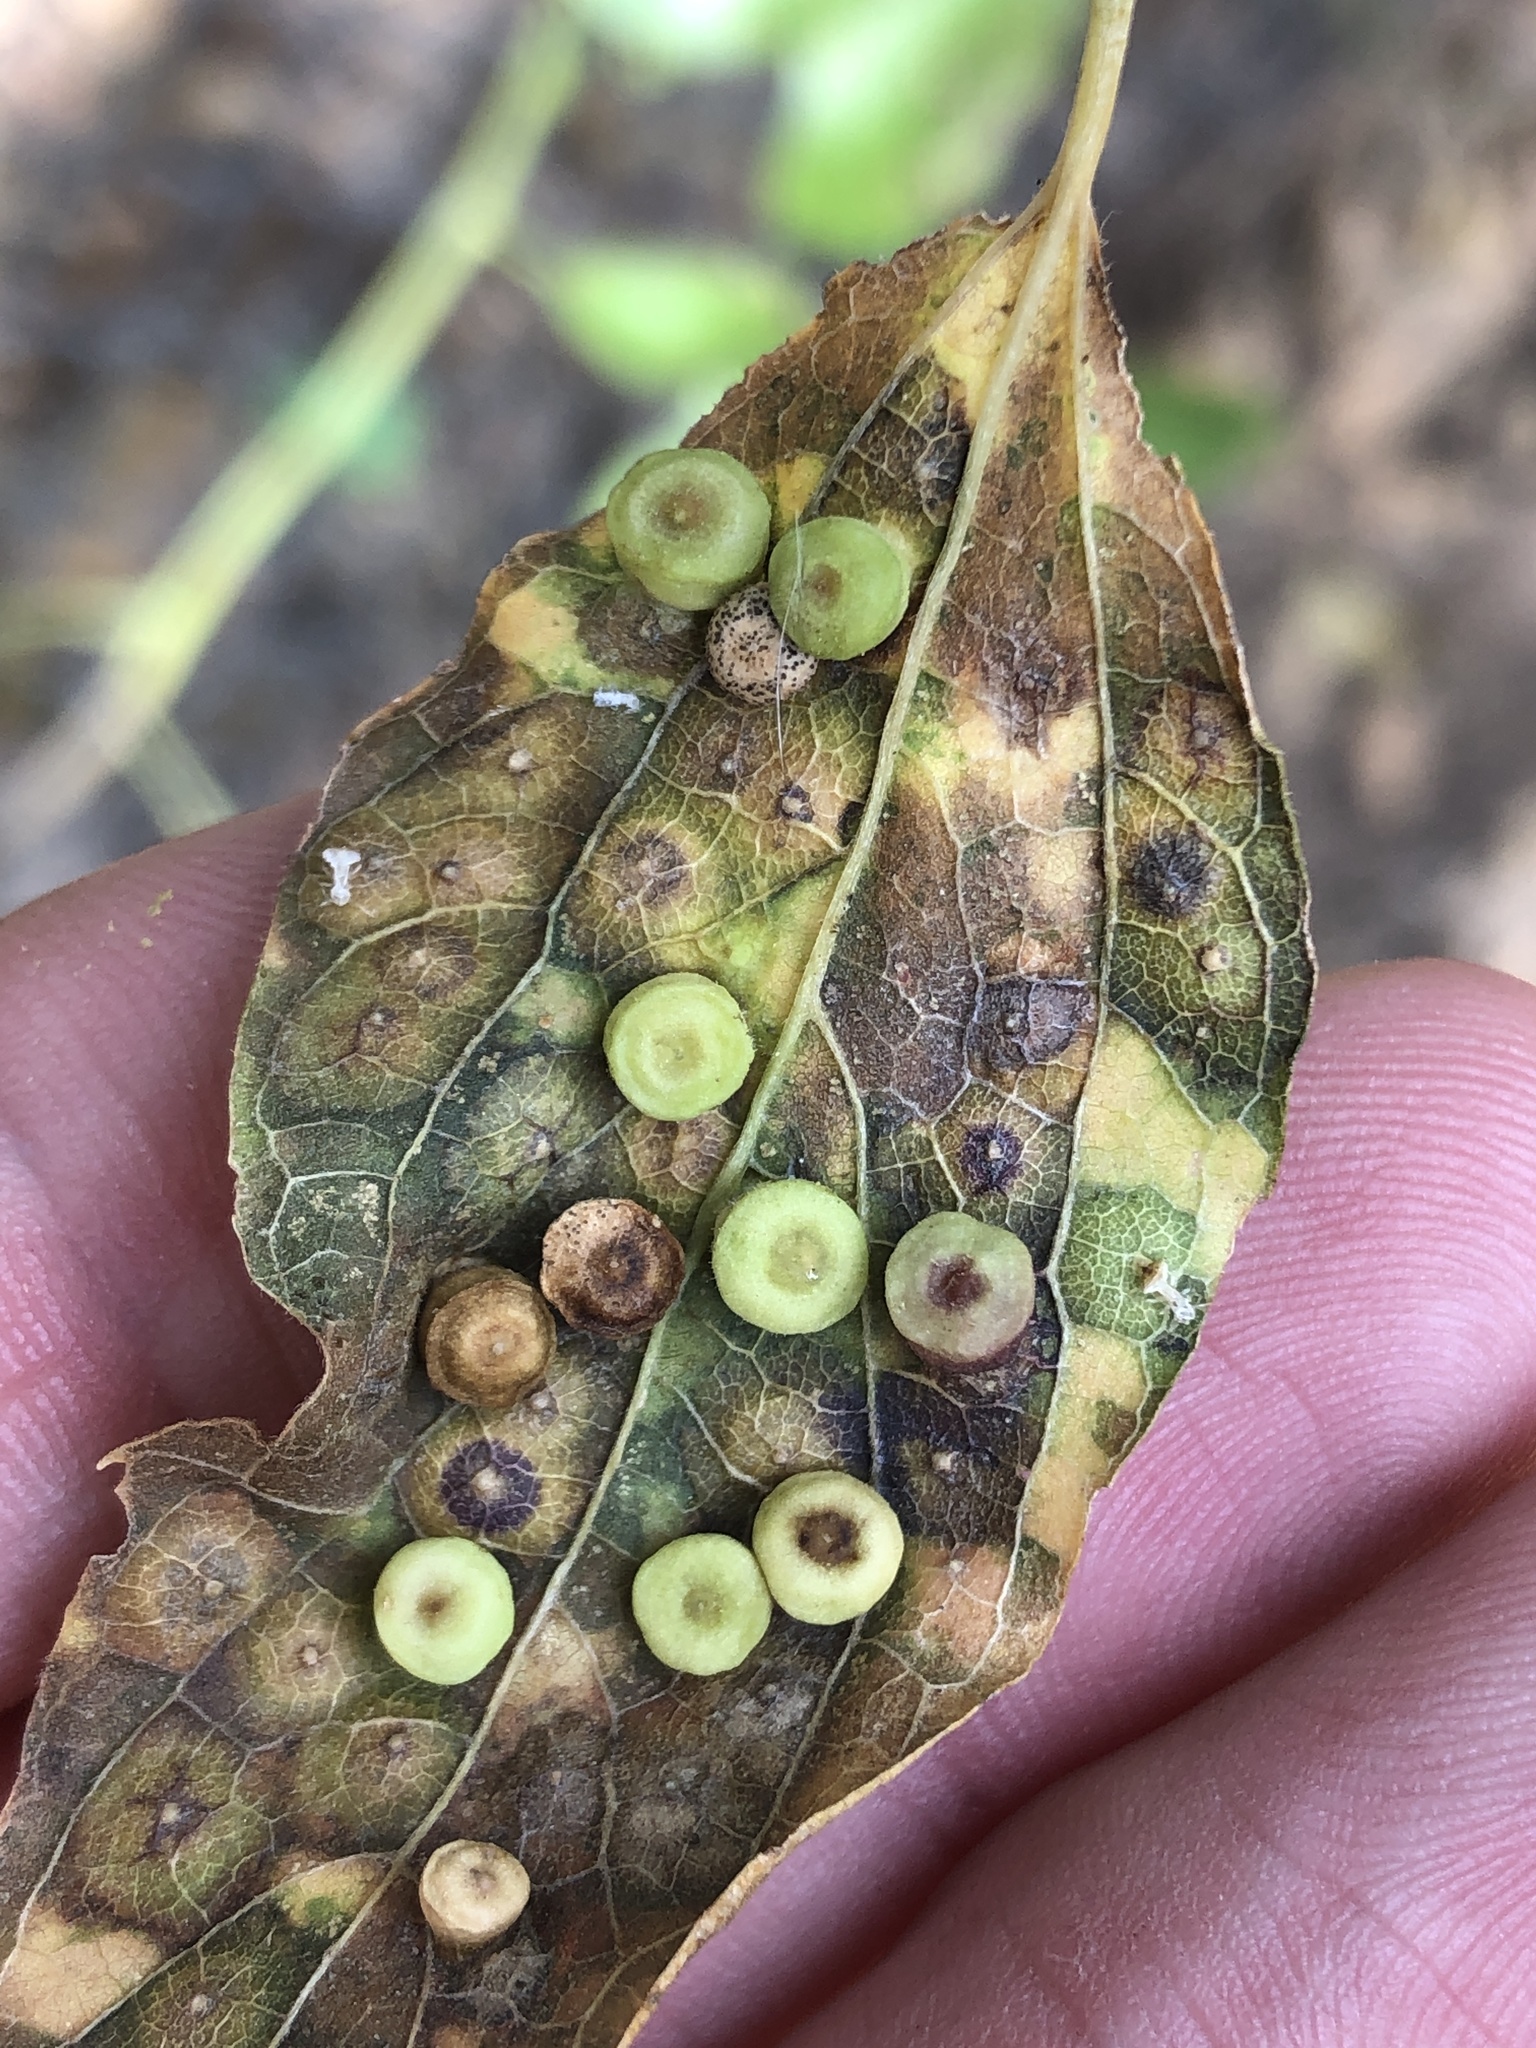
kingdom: Animalia
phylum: Arthropoda
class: Insecta
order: Hemiptera
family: Aphalaridae
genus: Pachypsylla
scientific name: Pachypsylla celtidismamma
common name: Hackberry nipplegall psyllid
